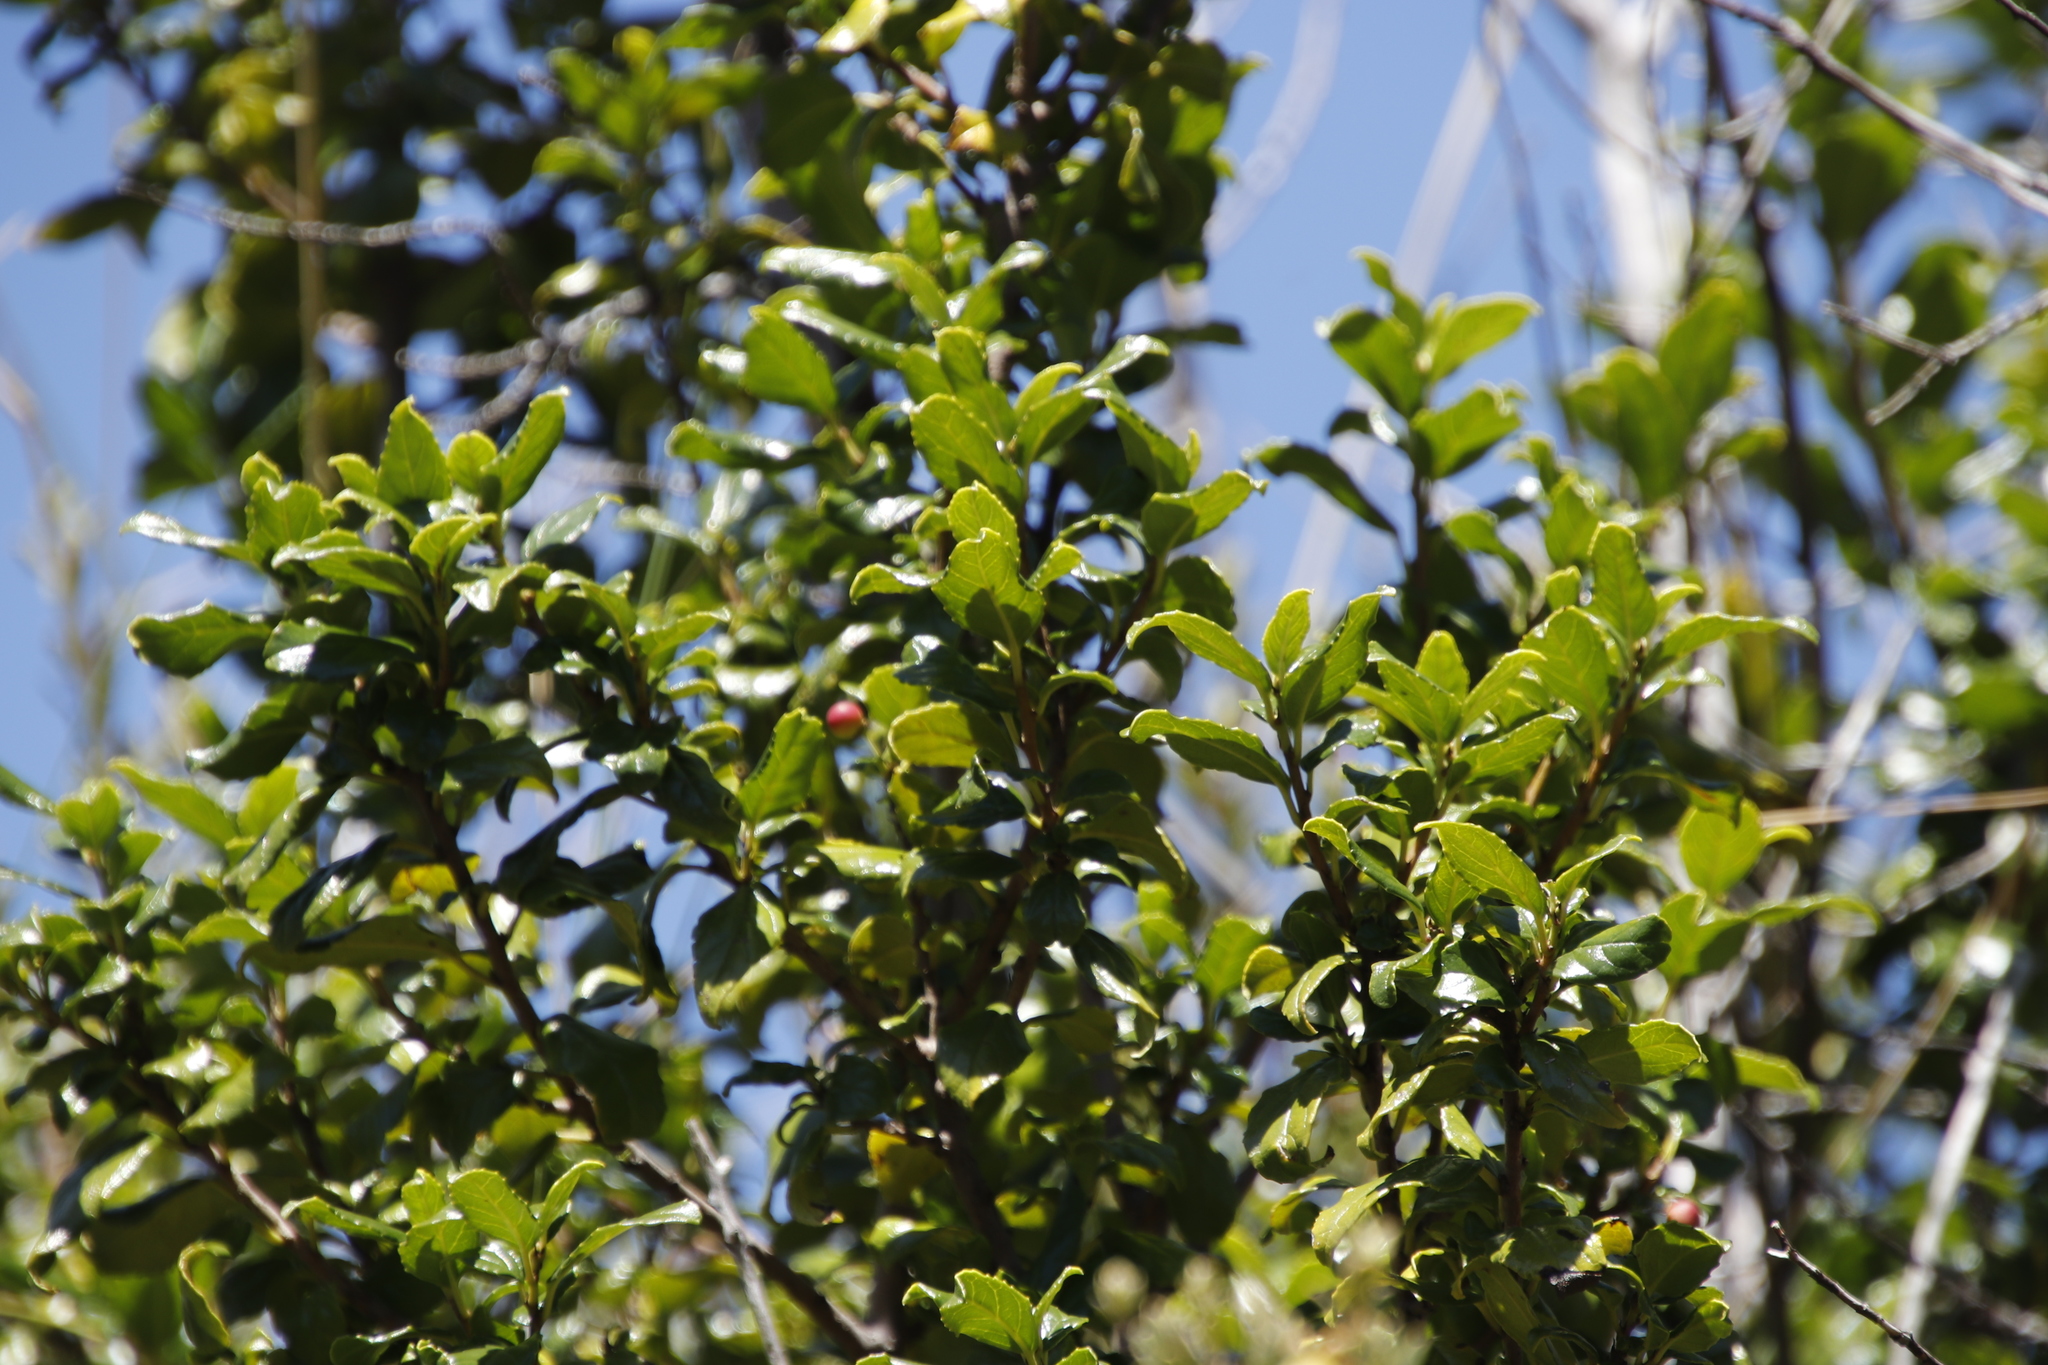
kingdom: Plantae
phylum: Tracheophyta
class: Magnoliopsida
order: Rosales
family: Rhamnaceae
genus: Rhamnus
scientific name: Rhamnus prinoides
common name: Dogwood
